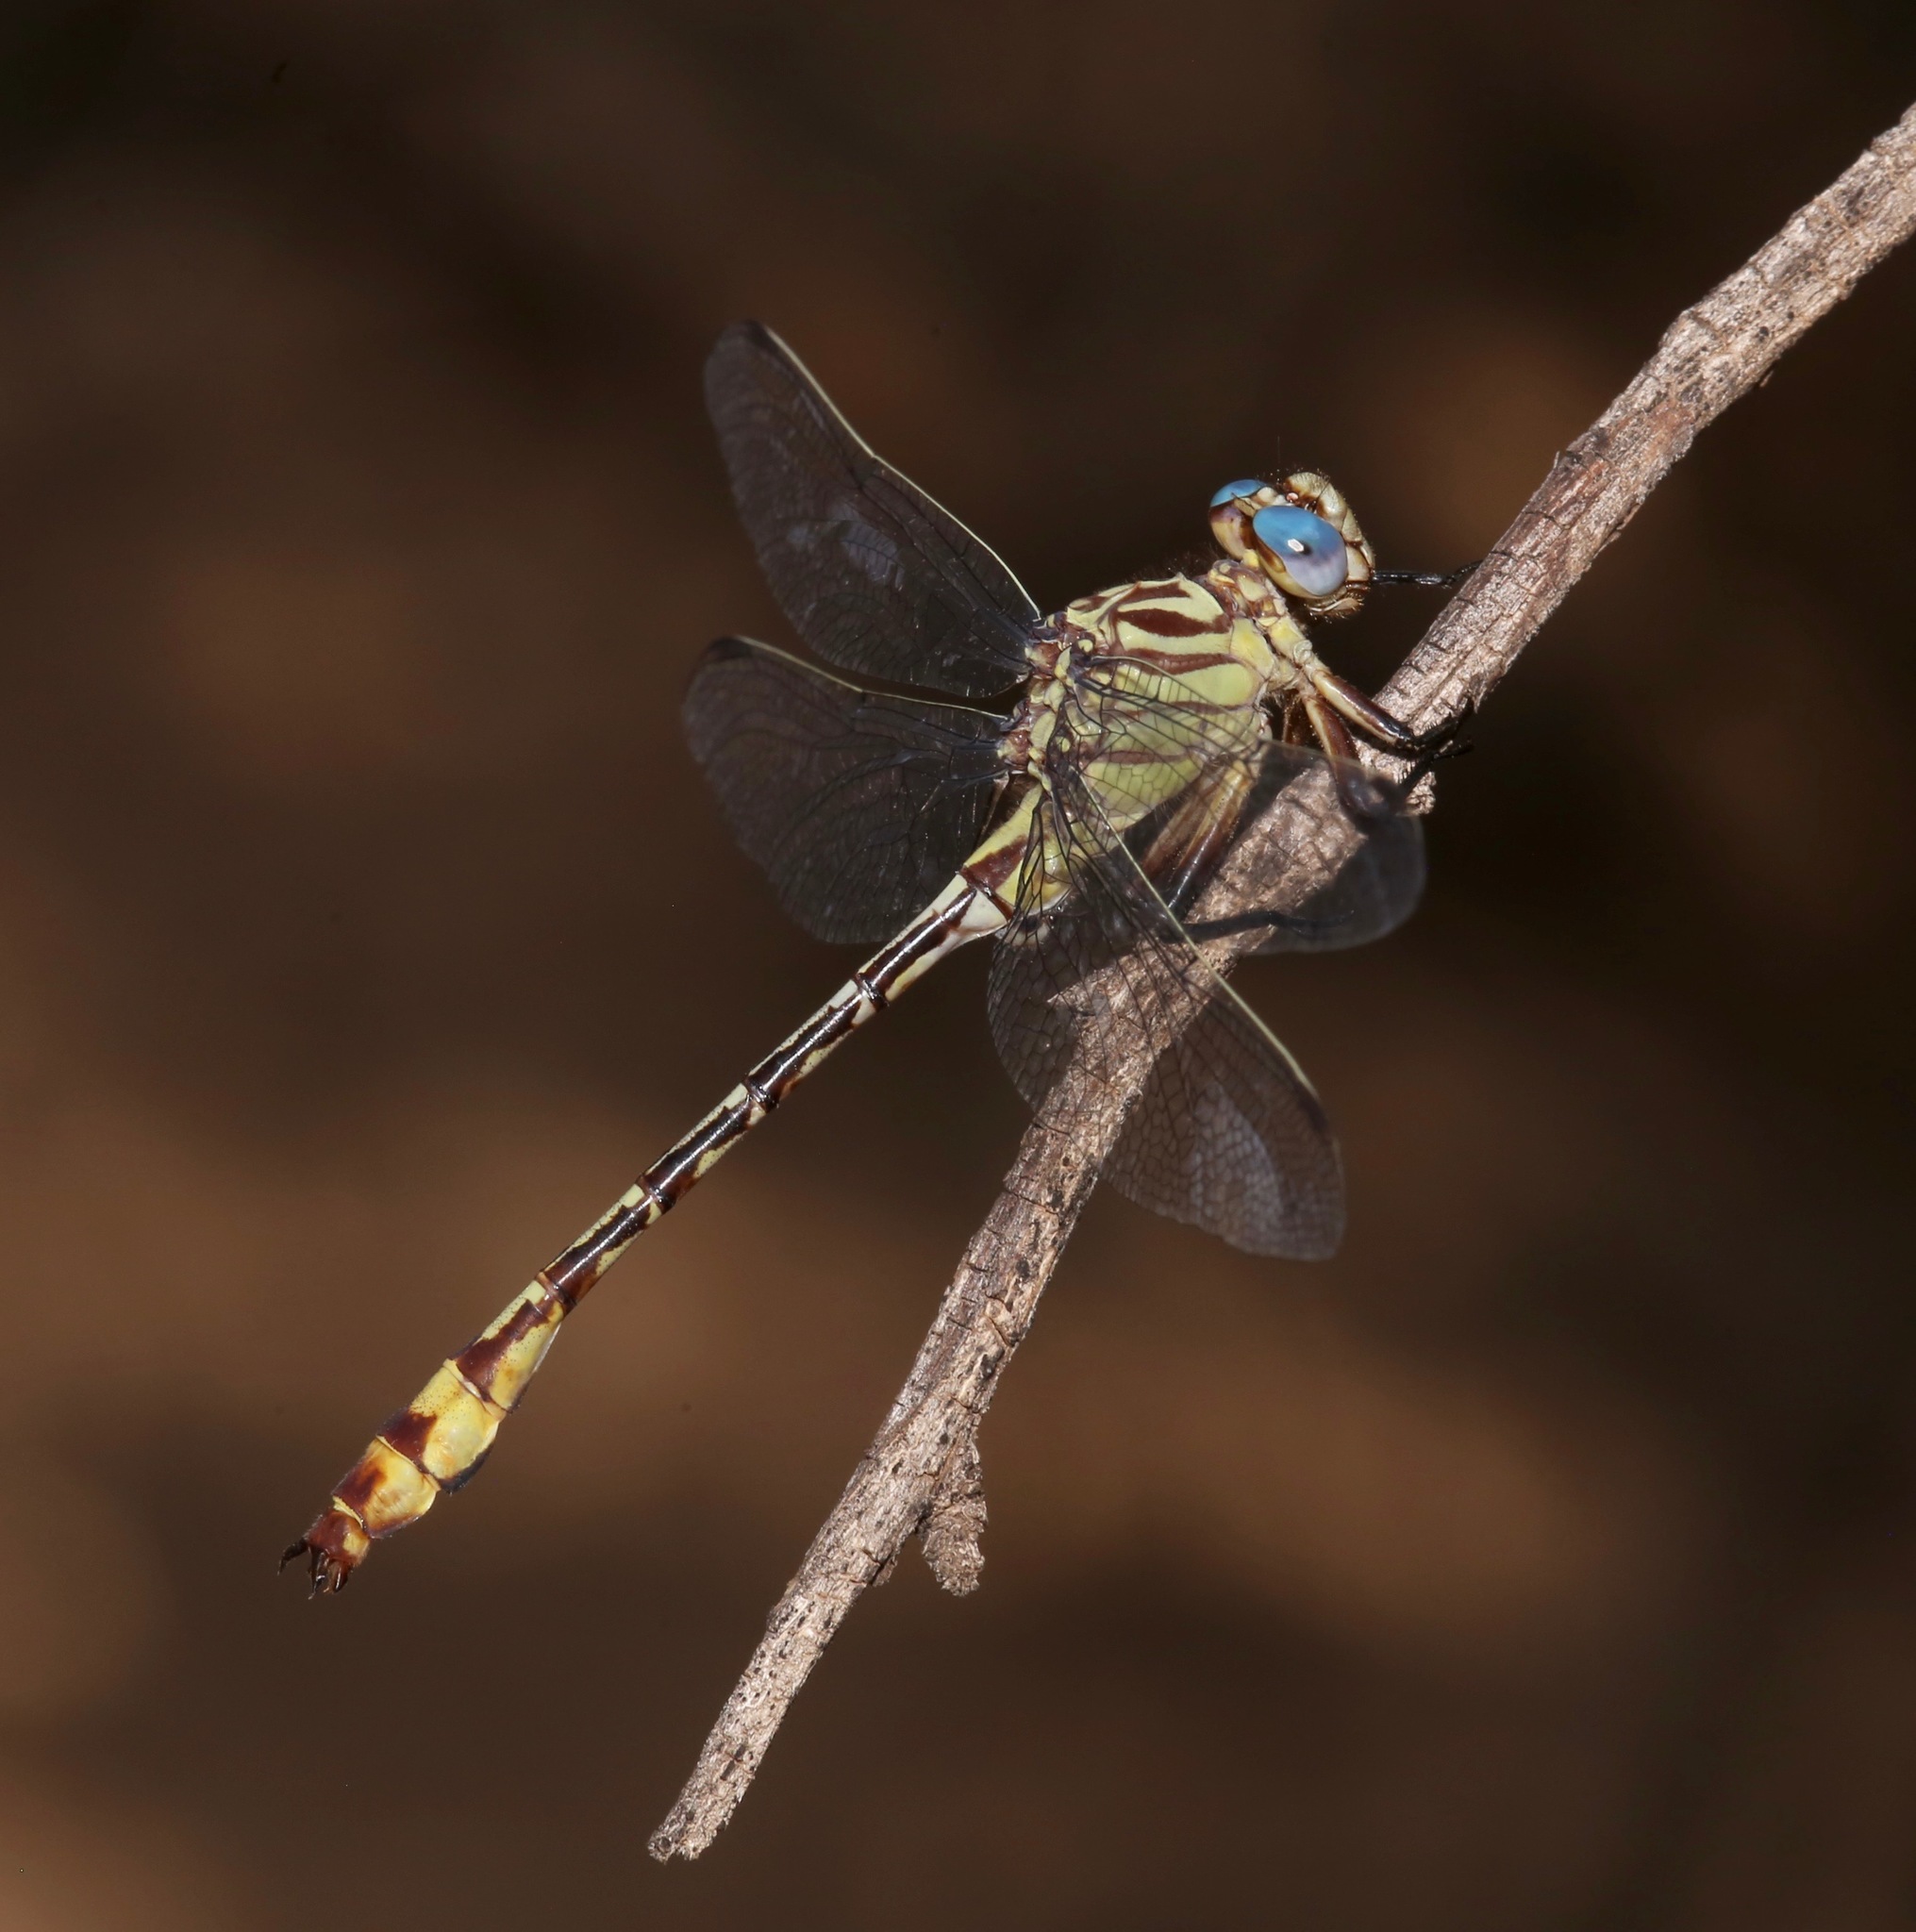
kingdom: Animalia
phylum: Arthropoda
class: Insecta
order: Odonata
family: Gomphidae
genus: Stylurus
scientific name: Stylurus plagiatus
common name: Russet-tipped clubtail
